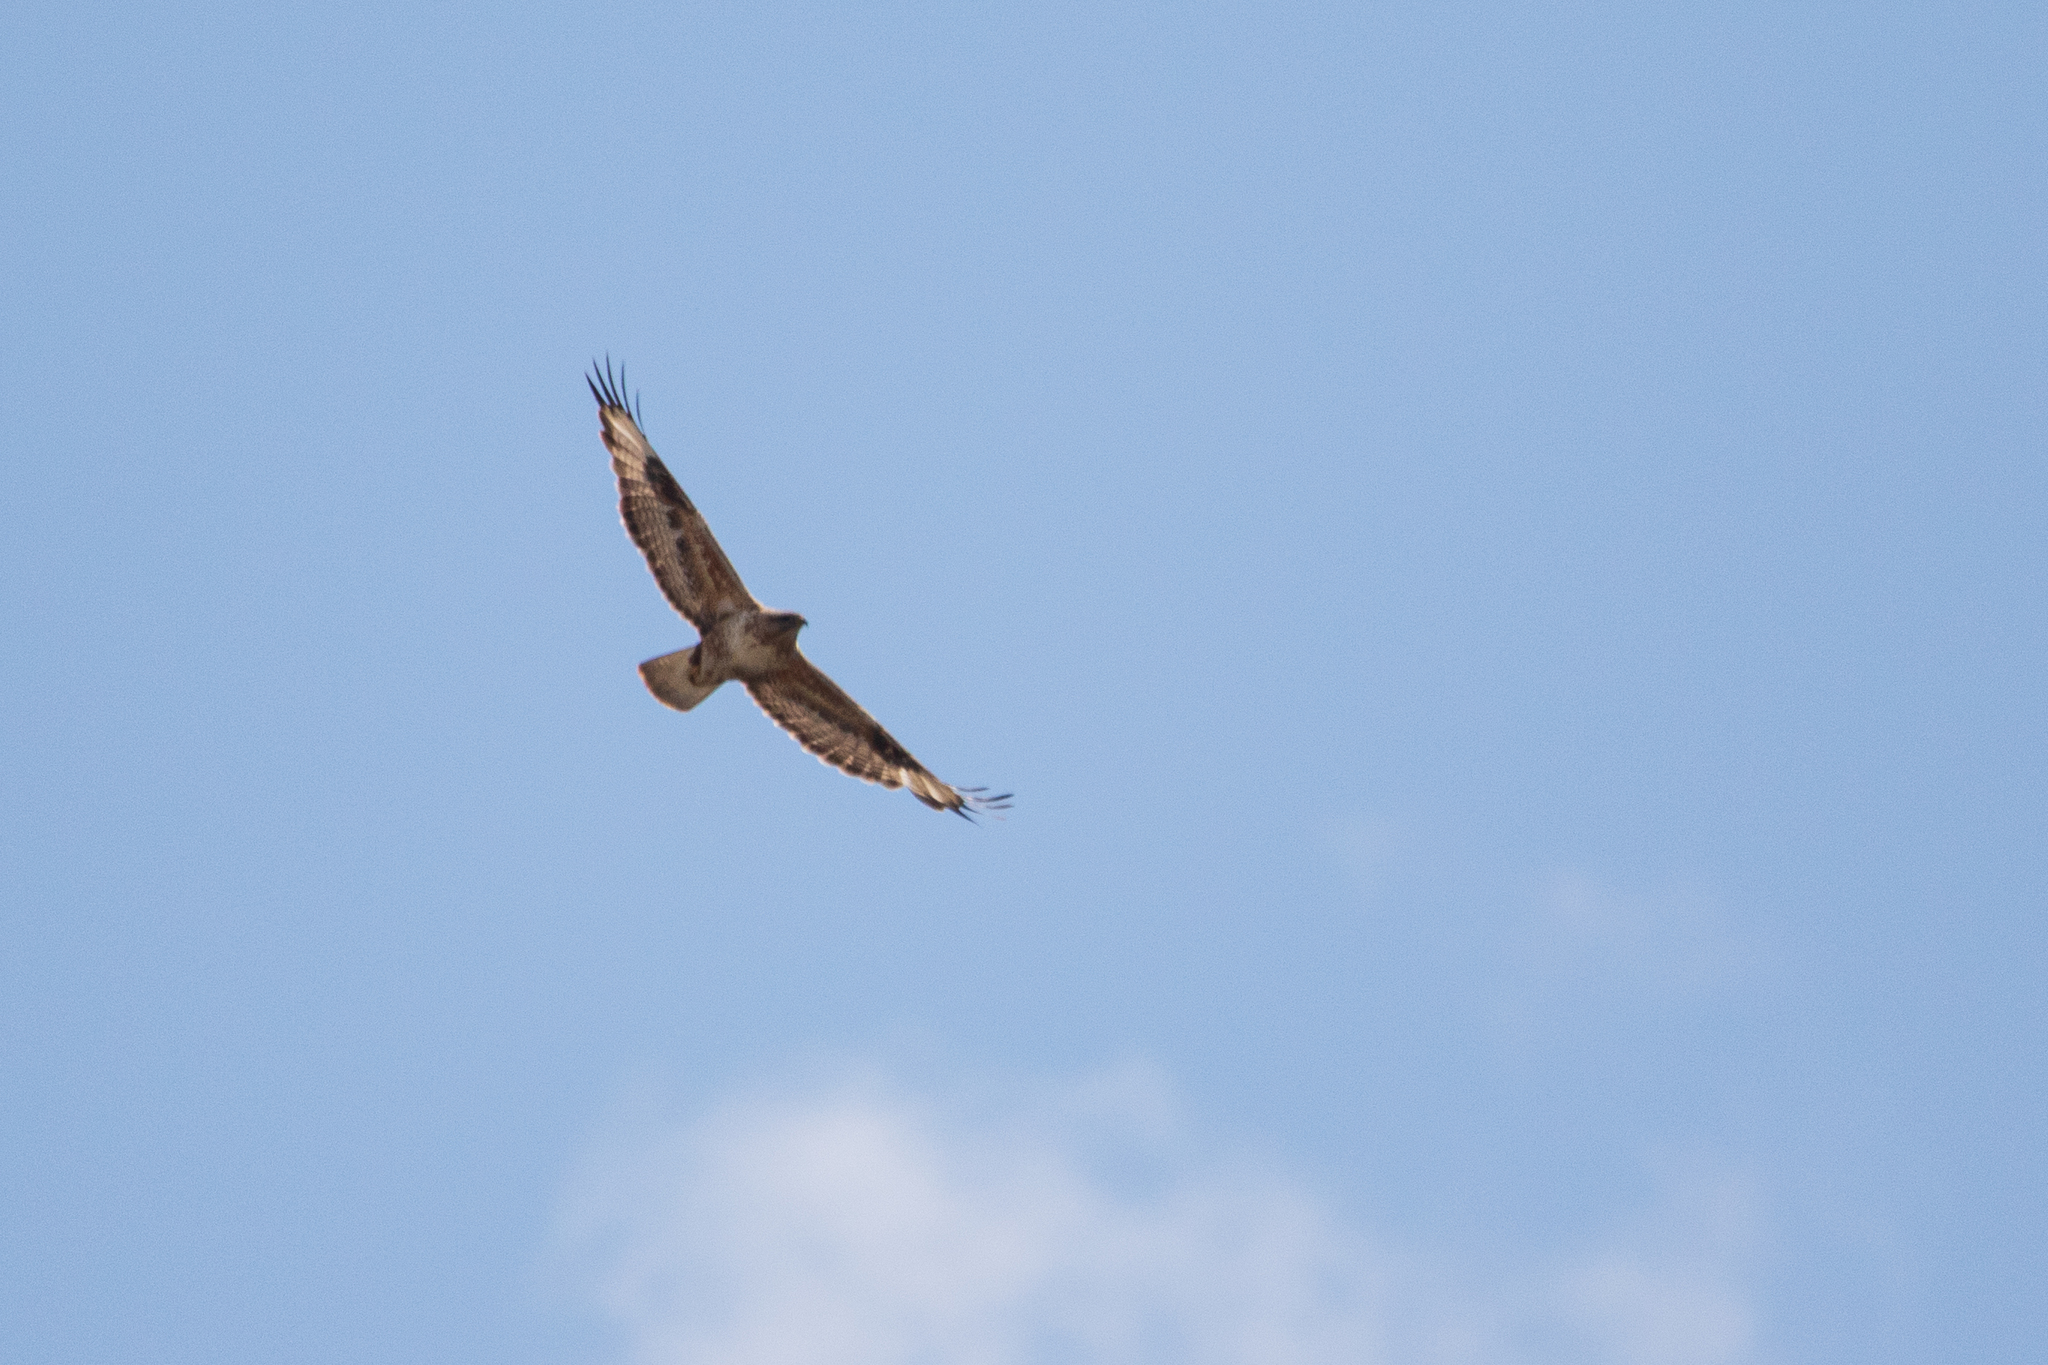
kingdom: Animalia
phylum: Chordata
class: Aves
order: Accipitriformes
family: Accipitridae
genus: Buteo
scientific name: Buteo hemilasius
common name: Upland buzzard
